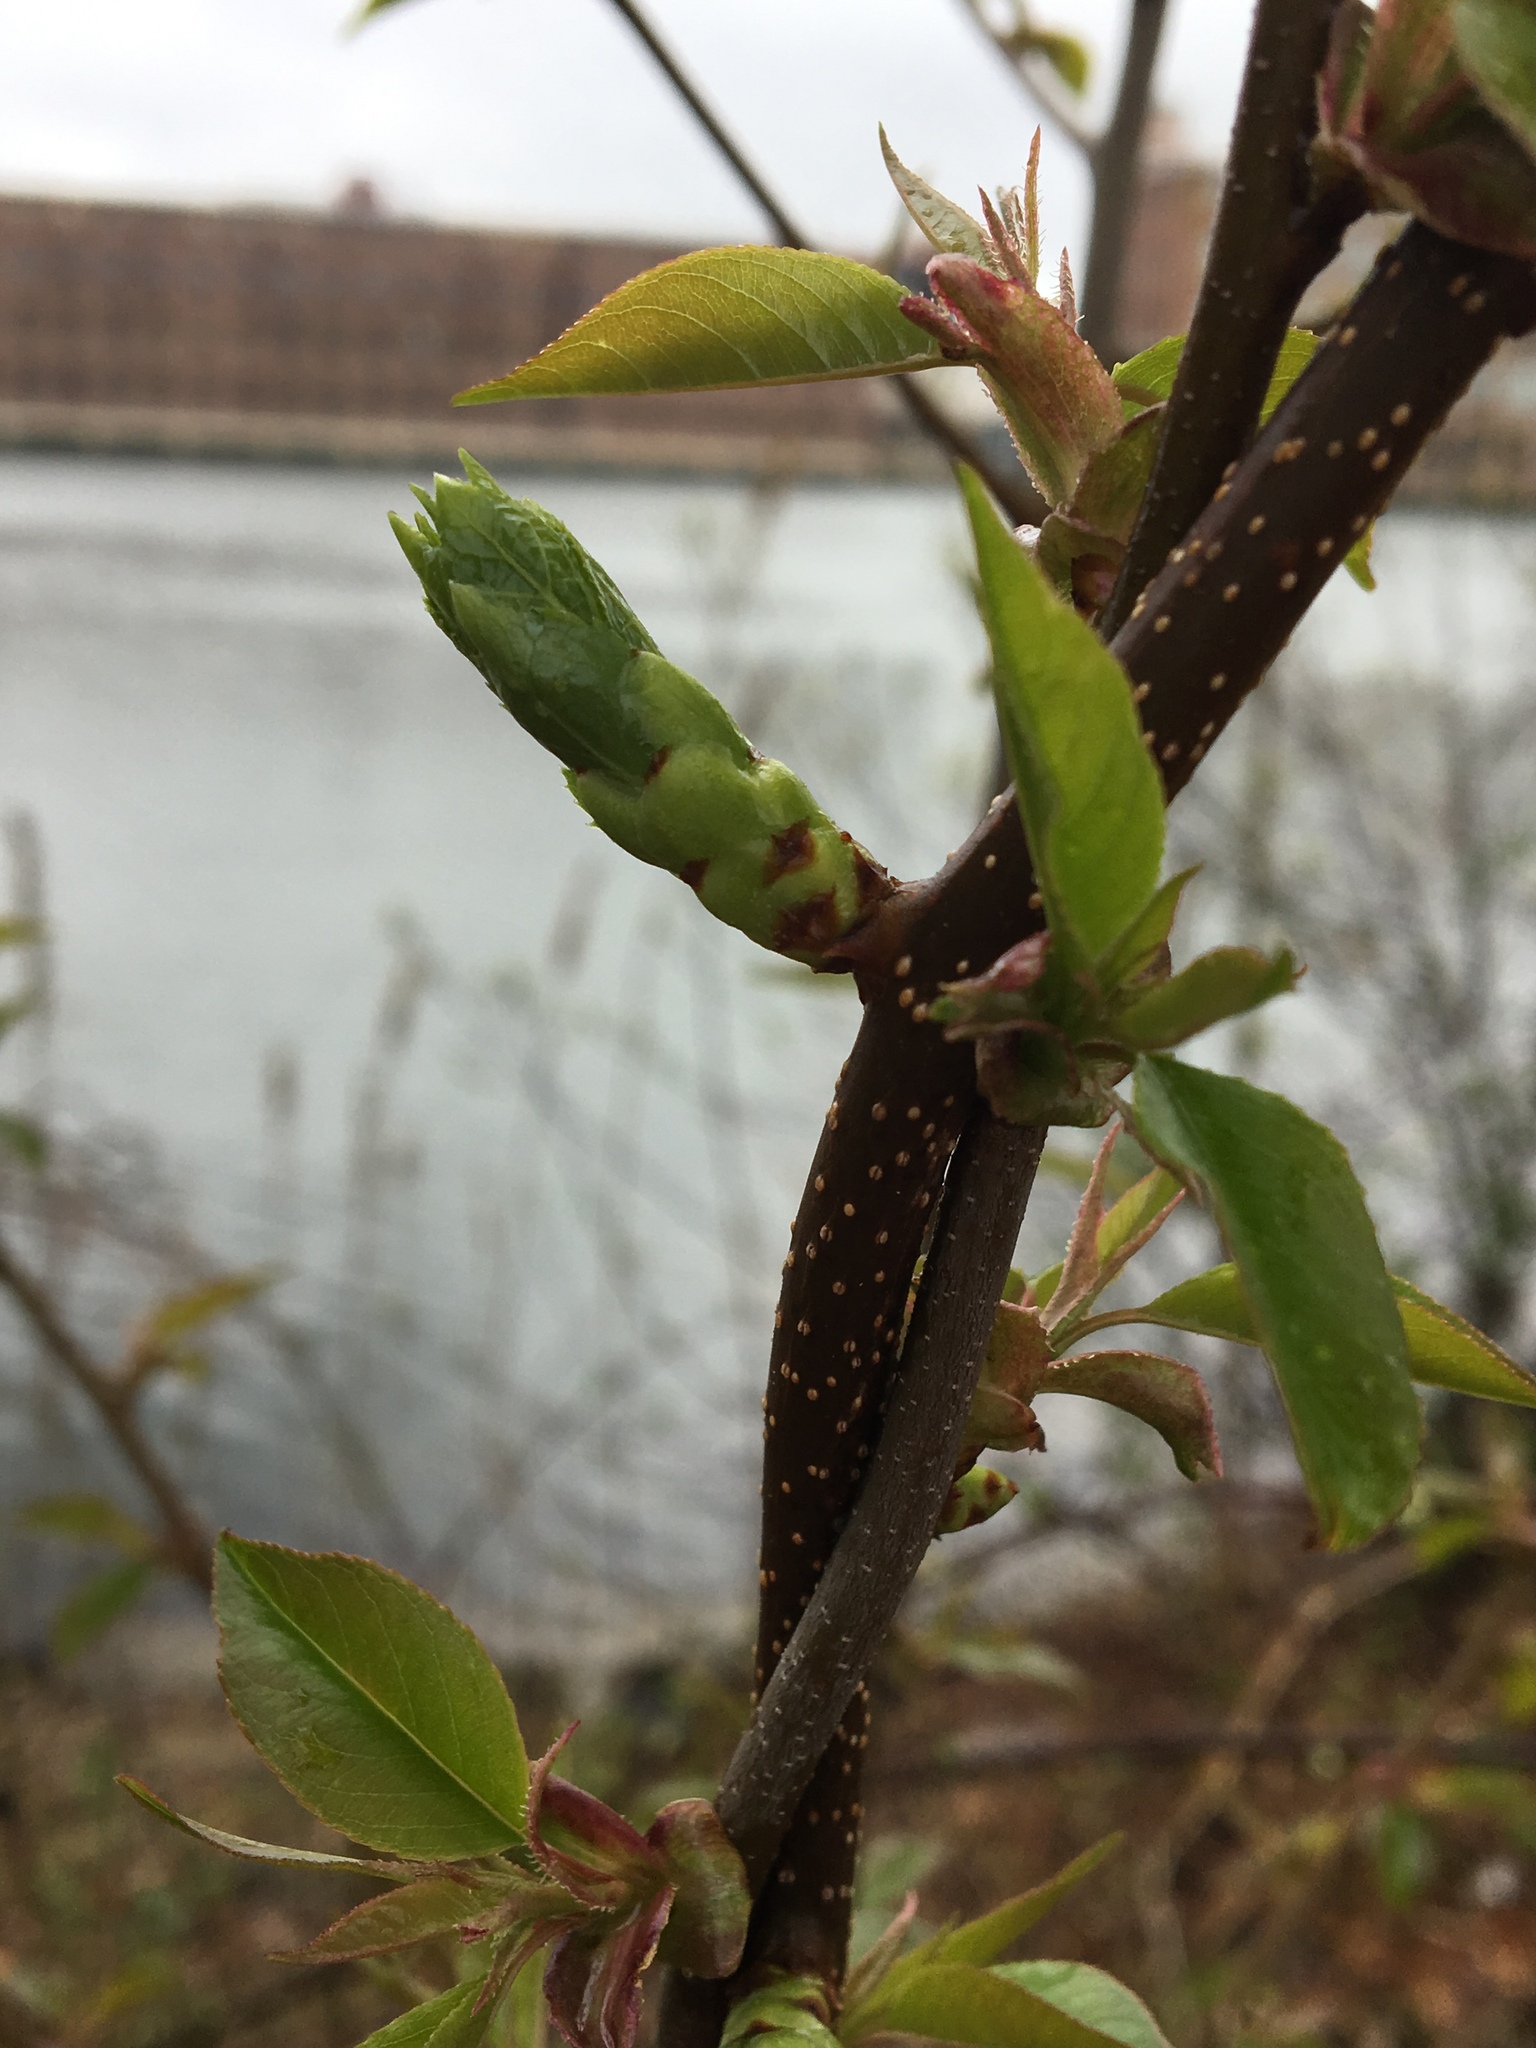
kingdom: Plantae
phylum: Tracheophyta
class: Magnoliopsida
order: Celastrales
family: Celastraceae
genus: Celastrus
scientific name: Celastrus orbiculatus
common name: Oriental bittersweet
